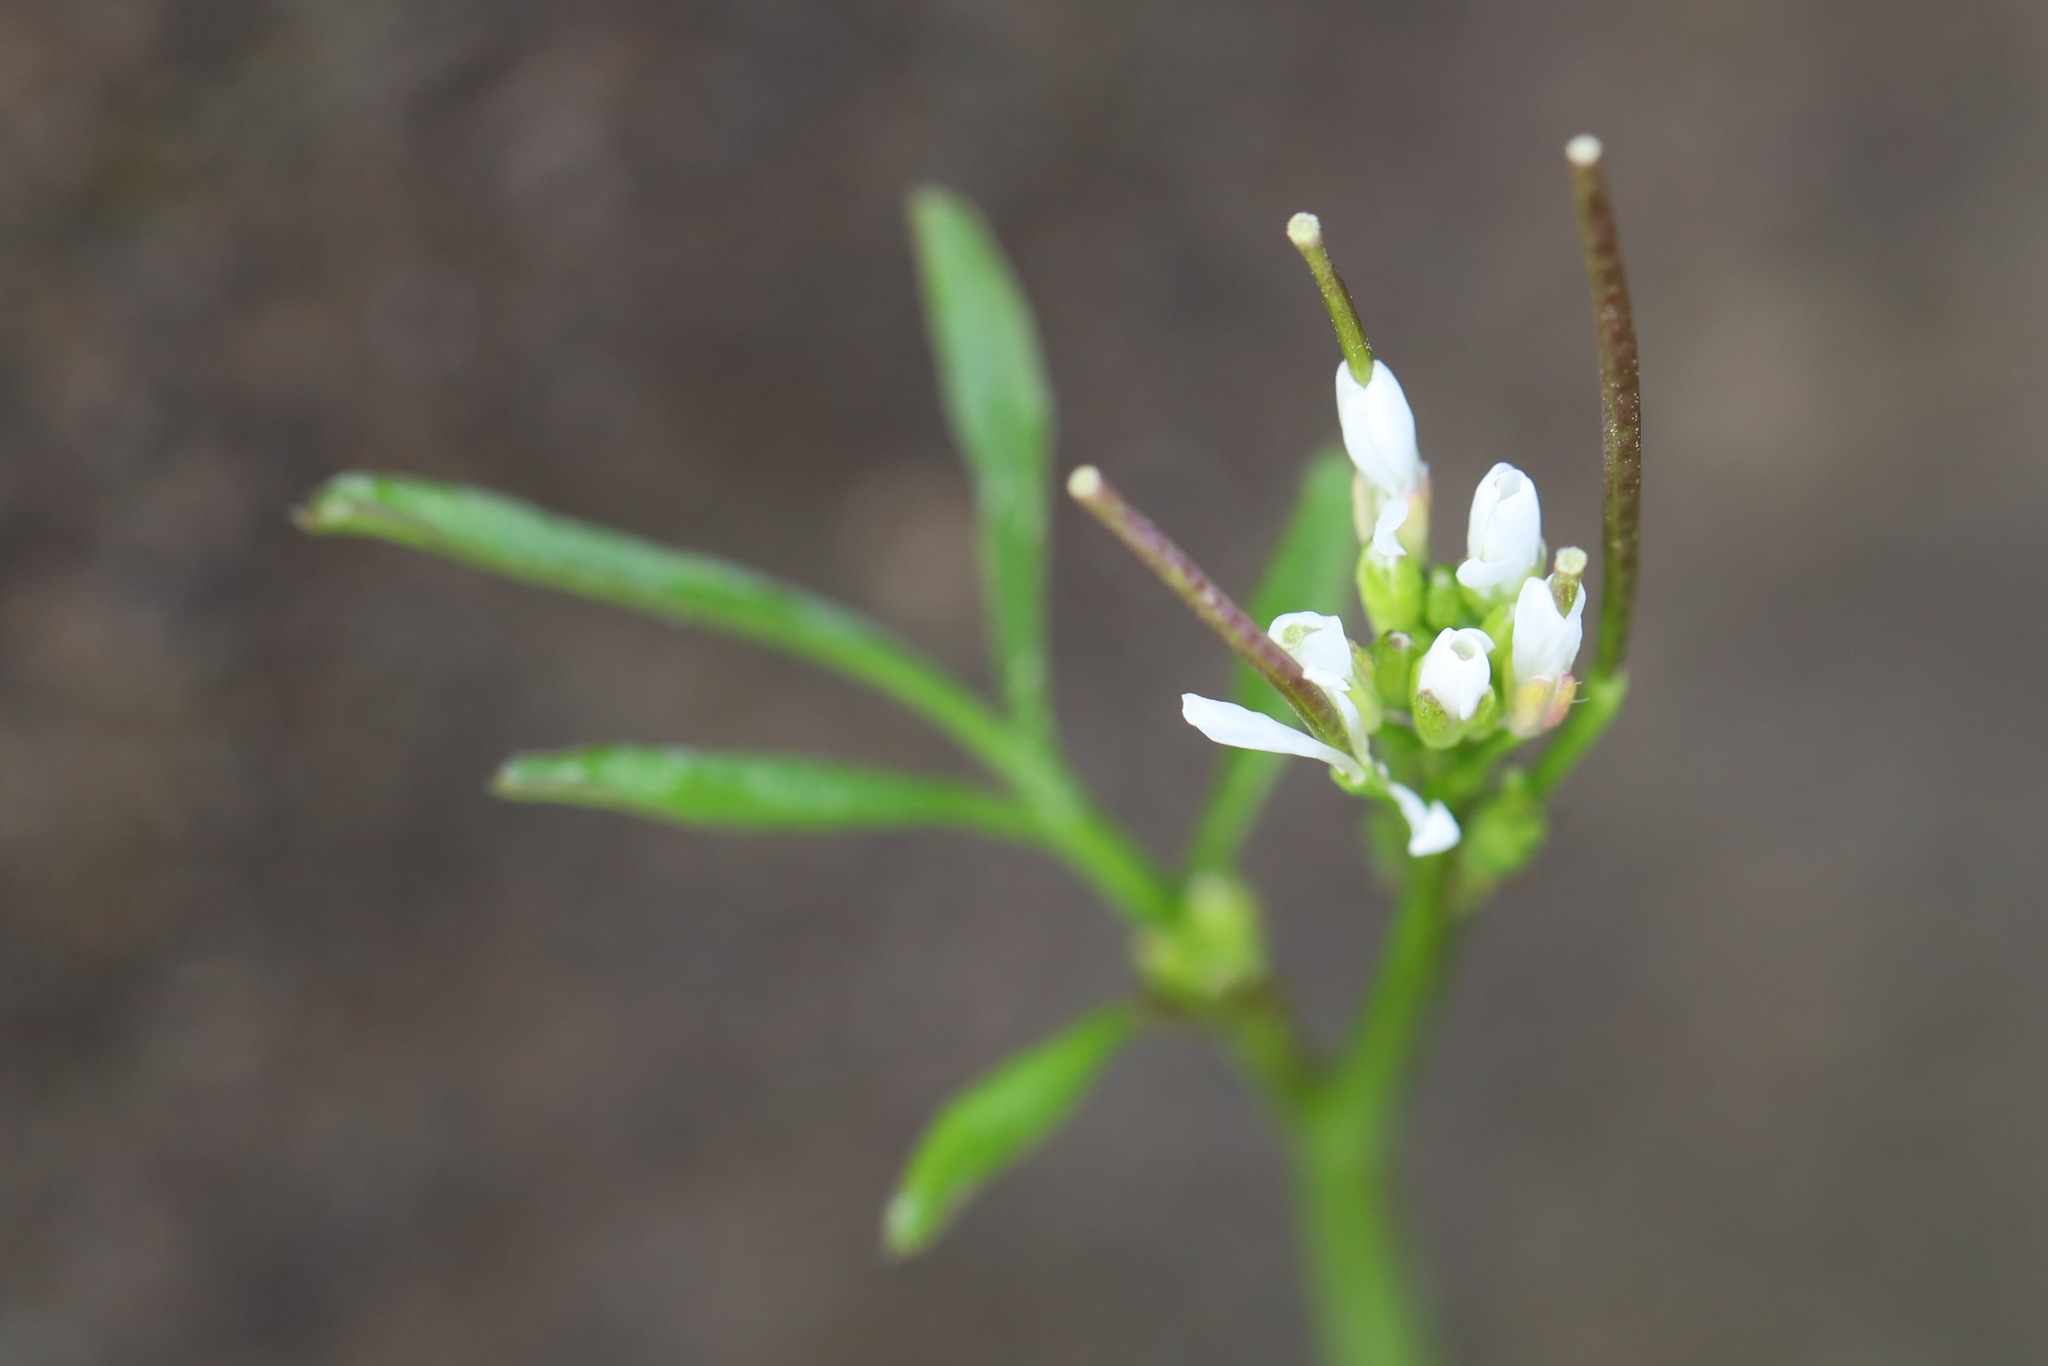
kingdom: Plantae
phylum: Tracheophyta
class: Magnoliopsida
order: Brassicales
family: Brassicaceae
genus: Cardamine
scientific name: Cardamine hirsuta
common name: Hairy bittercress
